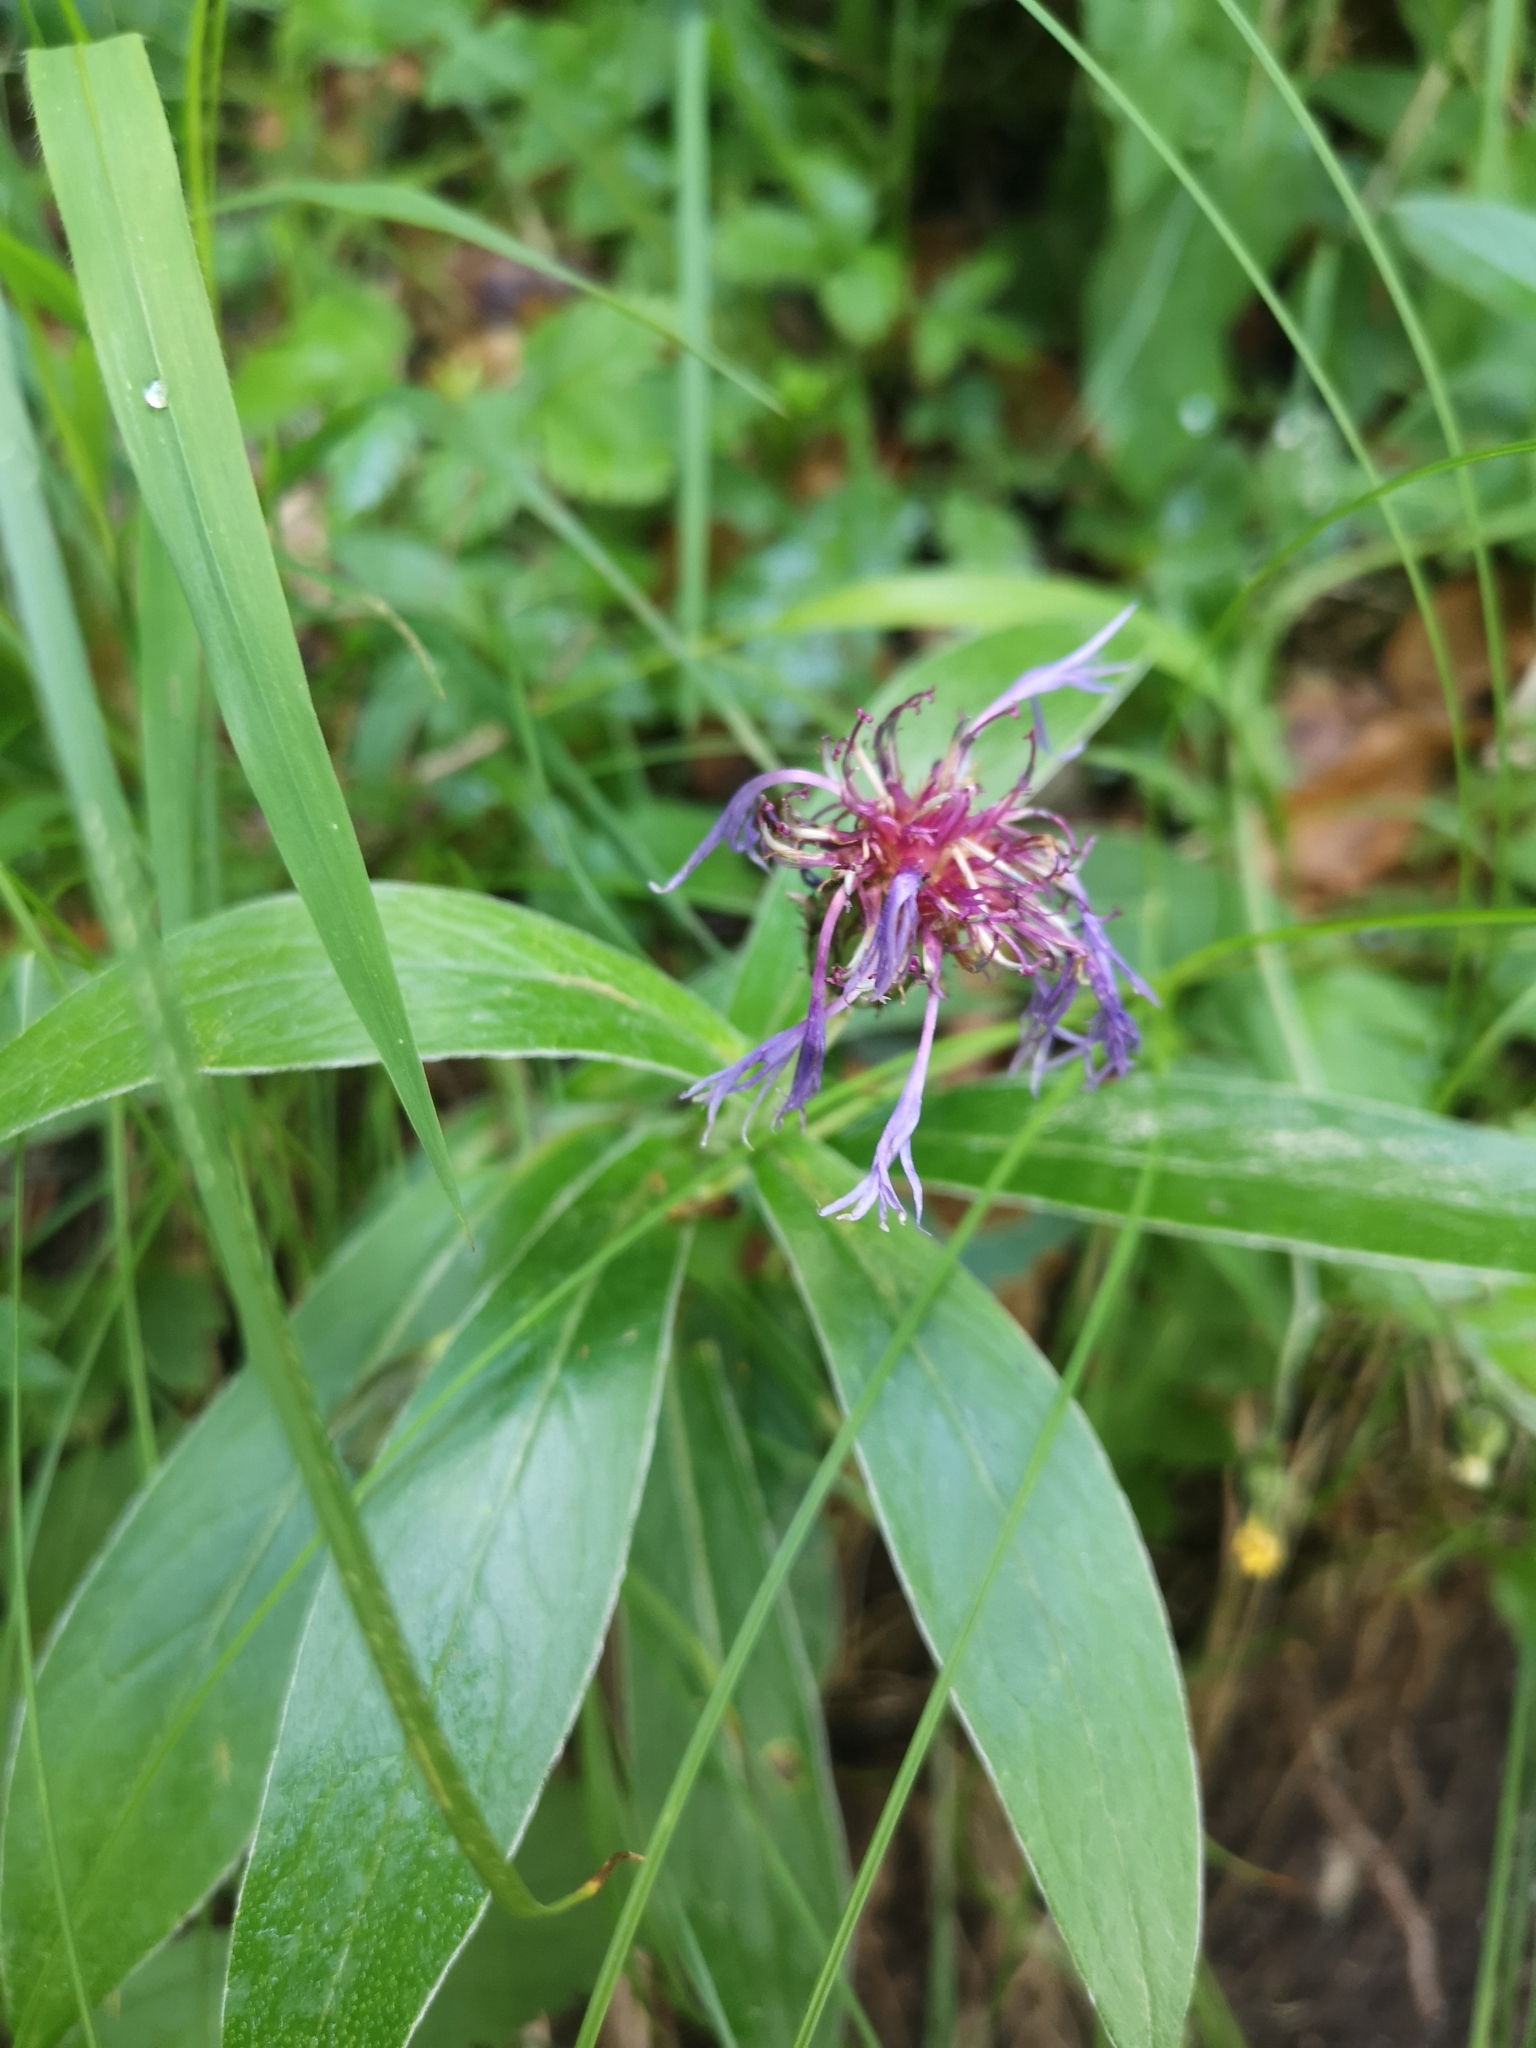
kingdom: Plantae
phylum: Tracheophyta
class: Magnoliopsida
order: Asterales
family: Asteraceae
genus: Centaurea
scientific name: Centaurea montana
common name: Perennial cornflower
